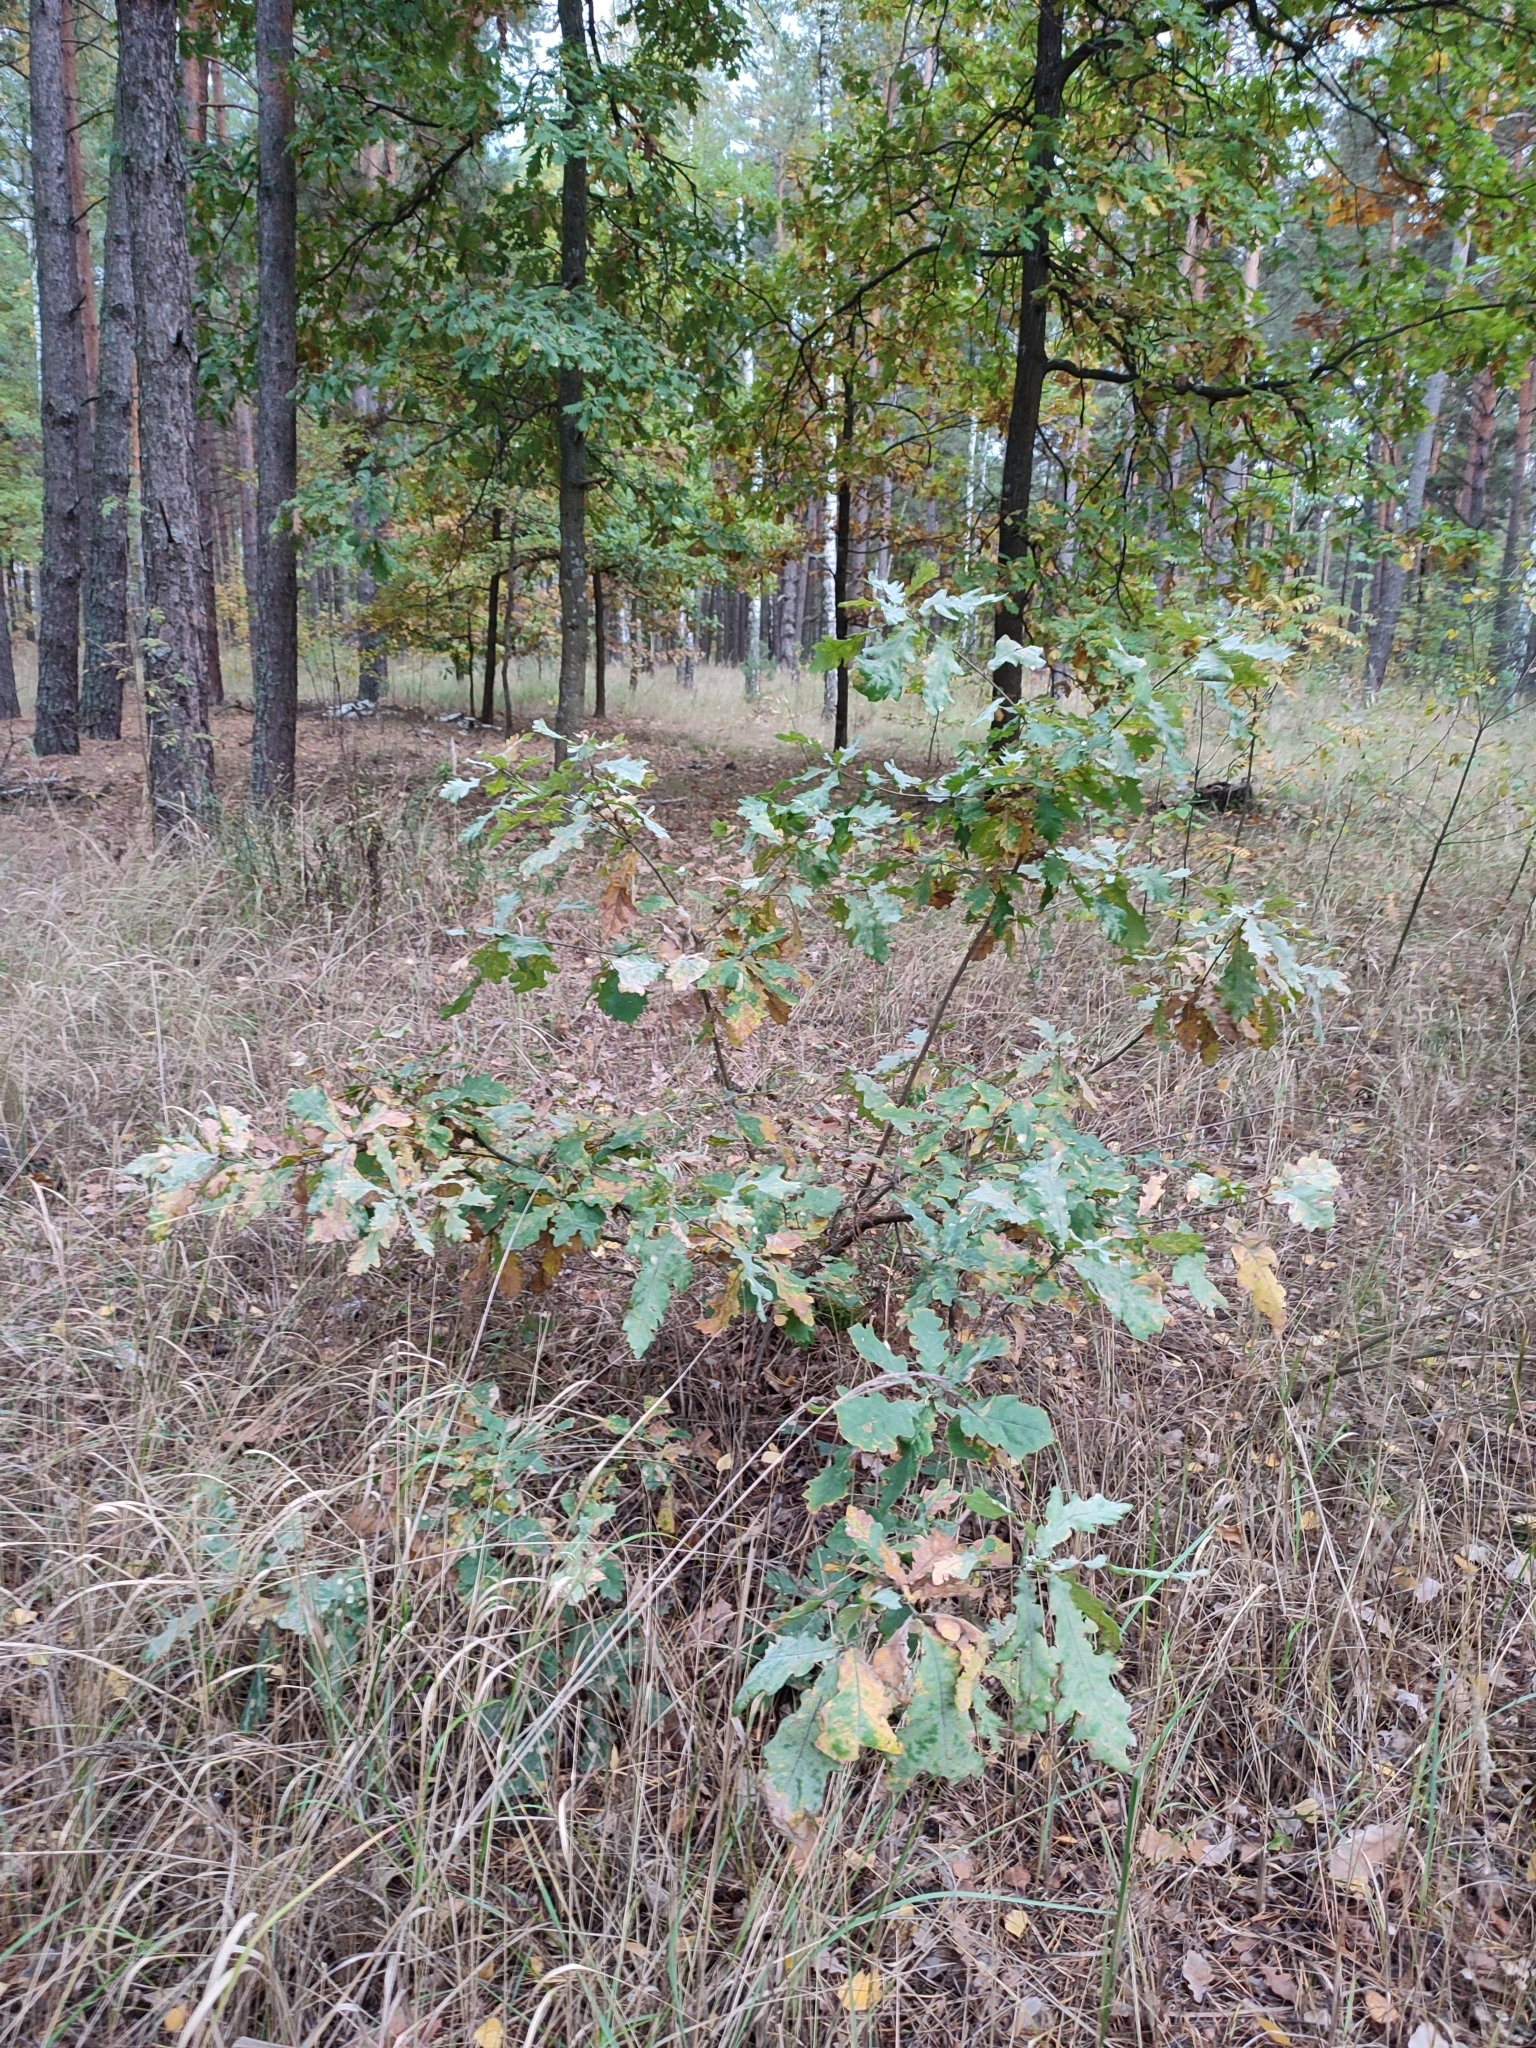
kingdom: Plantae
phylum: Tracheophyta
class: Magnoliopsida
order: Fagales
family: Fagaceae
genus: Quercus
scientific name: Quercus robur
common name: Pedunculate oak
